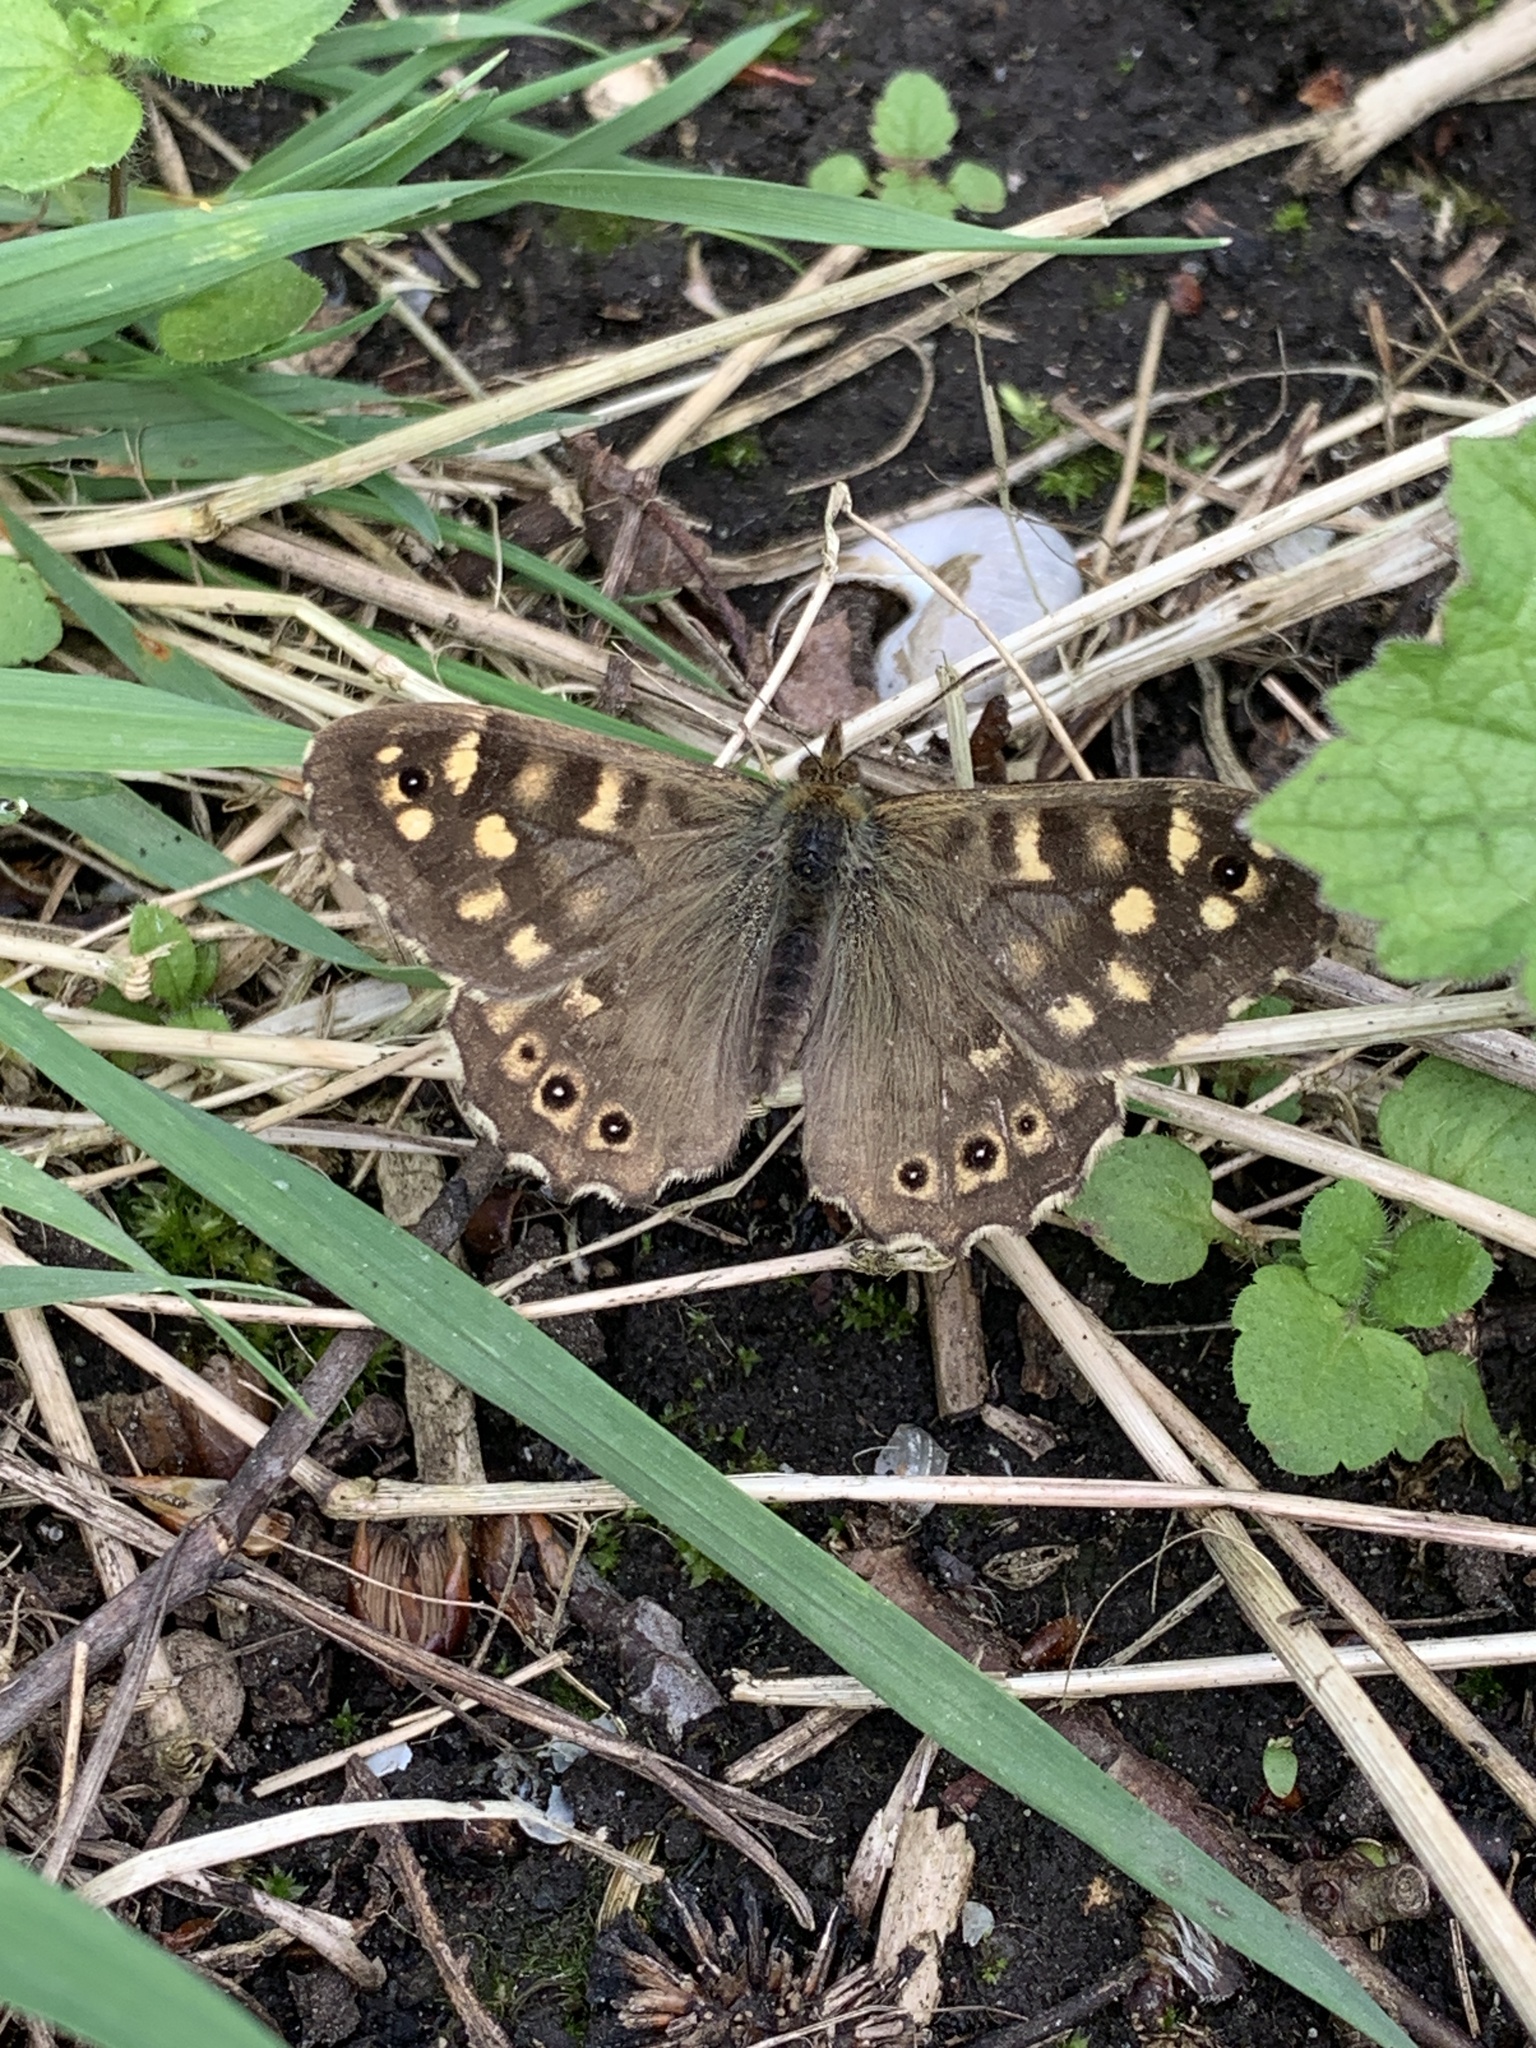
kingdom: Animalia
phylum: Arthropoda
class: Insecta
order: Lepidoptera
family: Nymphalidae
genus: Pararge
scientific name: Pararge aegeria
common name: Speckled wood
